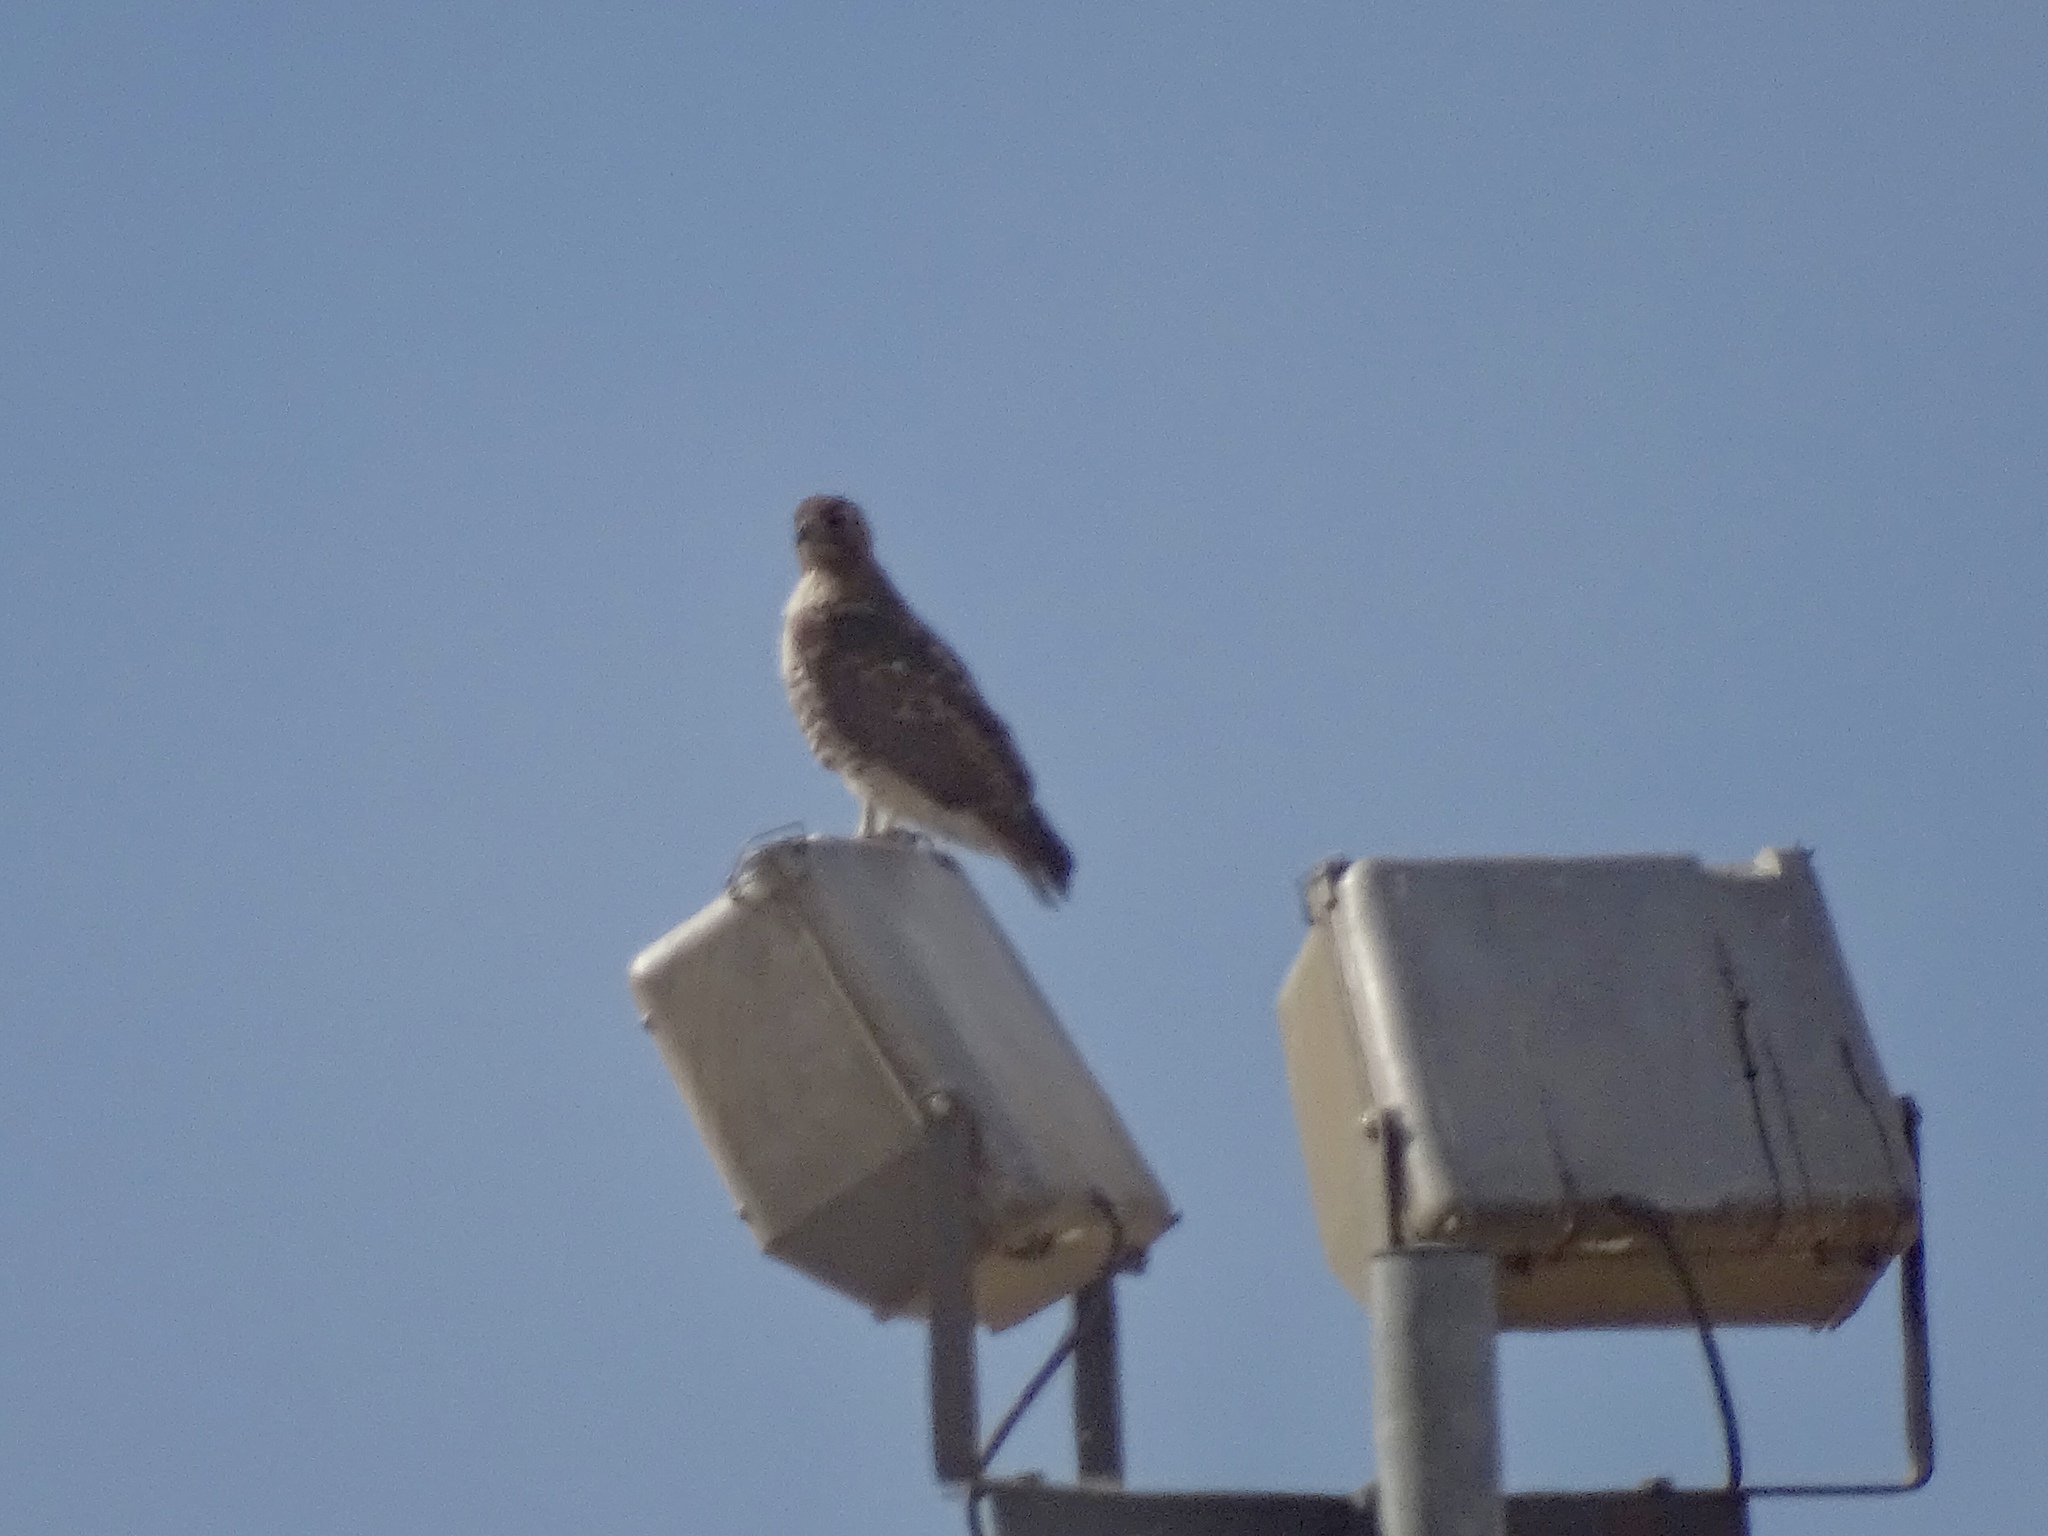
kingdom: Animalia
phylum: Chordata
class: Aves
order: Accipitriformes
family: Accipitridae
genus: Buteo
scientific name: Buteo jamaicensis
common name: Red-tailed hawk
